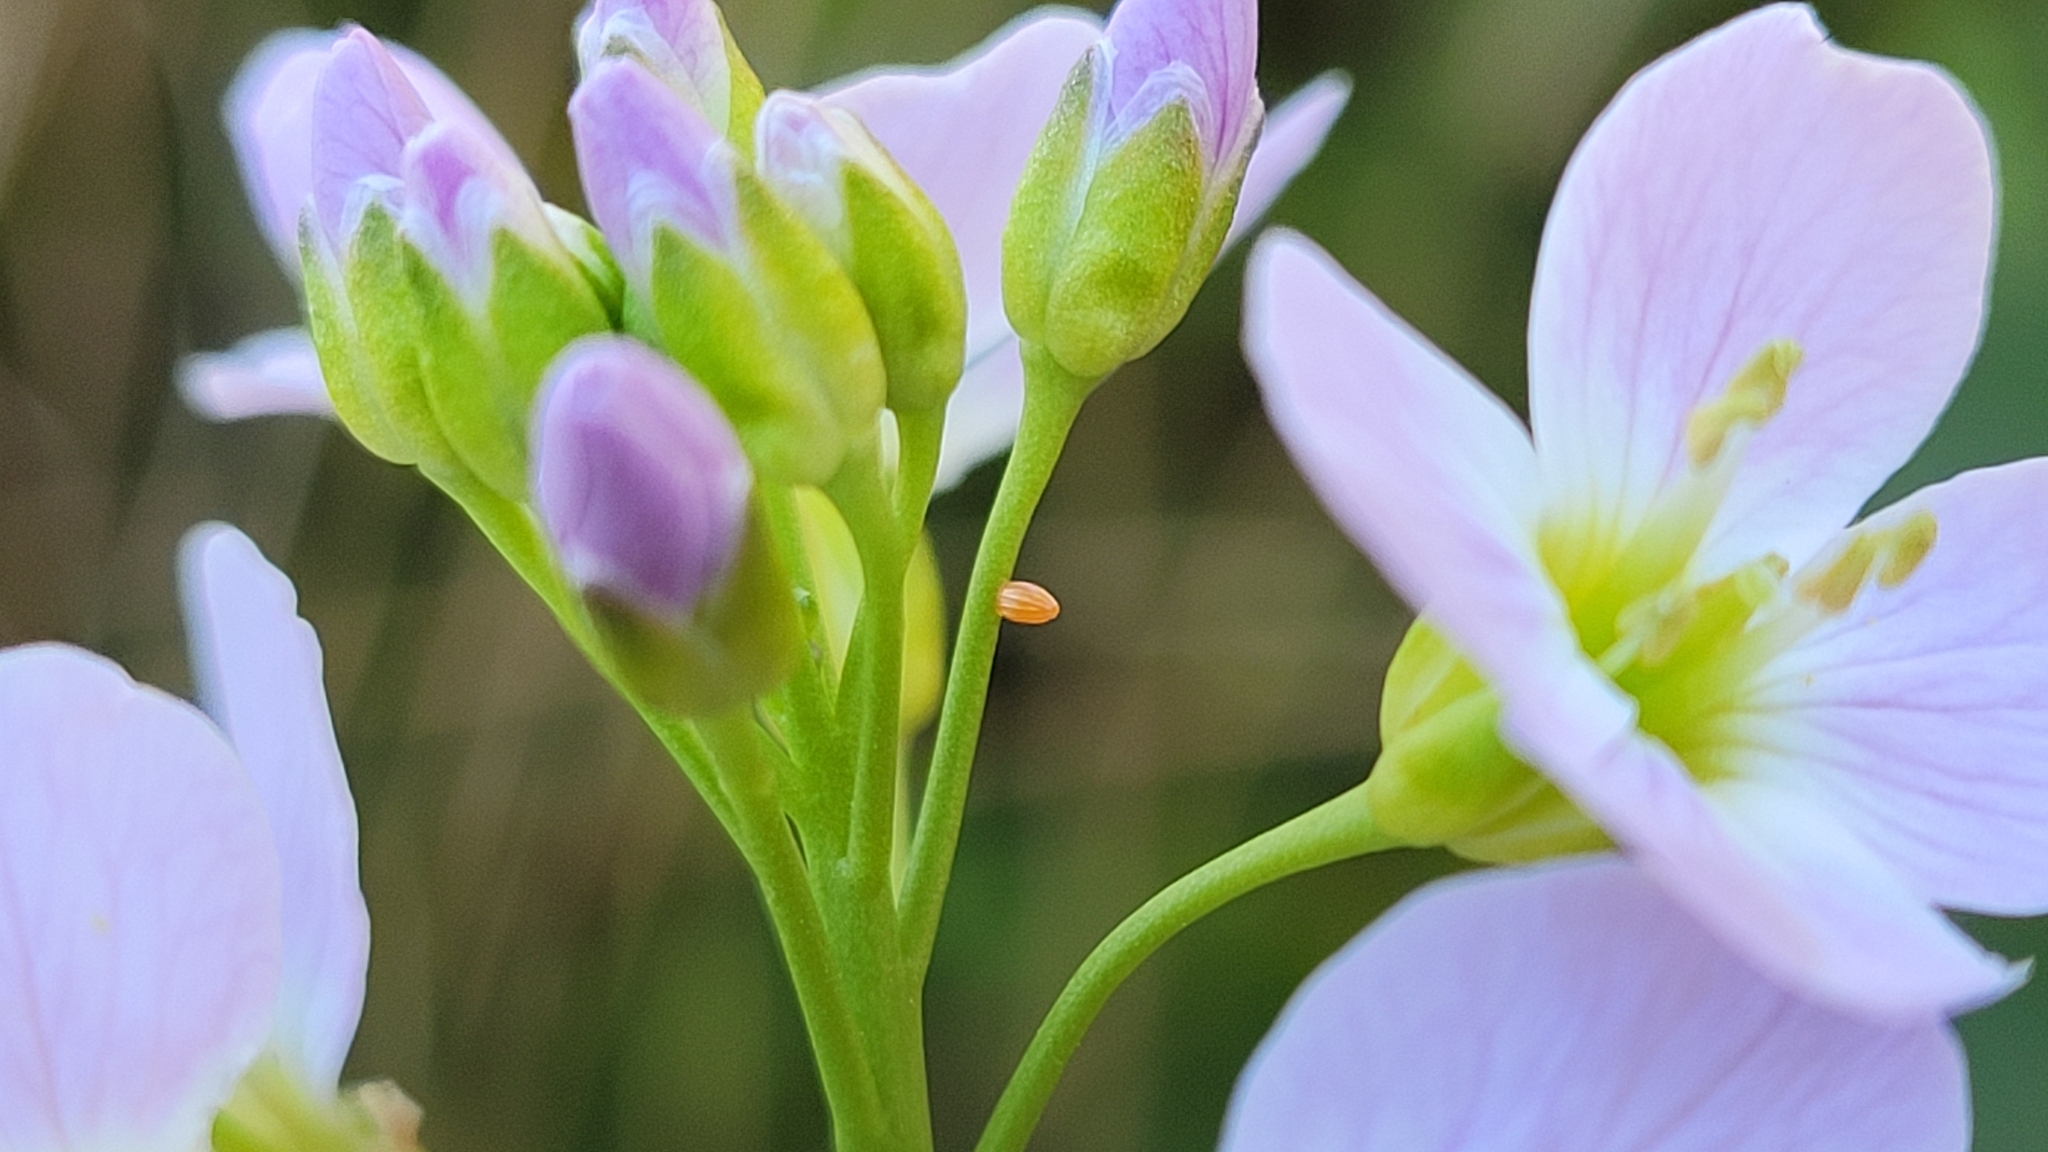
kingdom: Animalia
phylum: Arthropoda
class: Insecta
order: Lepidoptera
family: Pieridae
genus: Anthocharis
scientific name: Anthocharis cardamines
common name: Orange-tip
